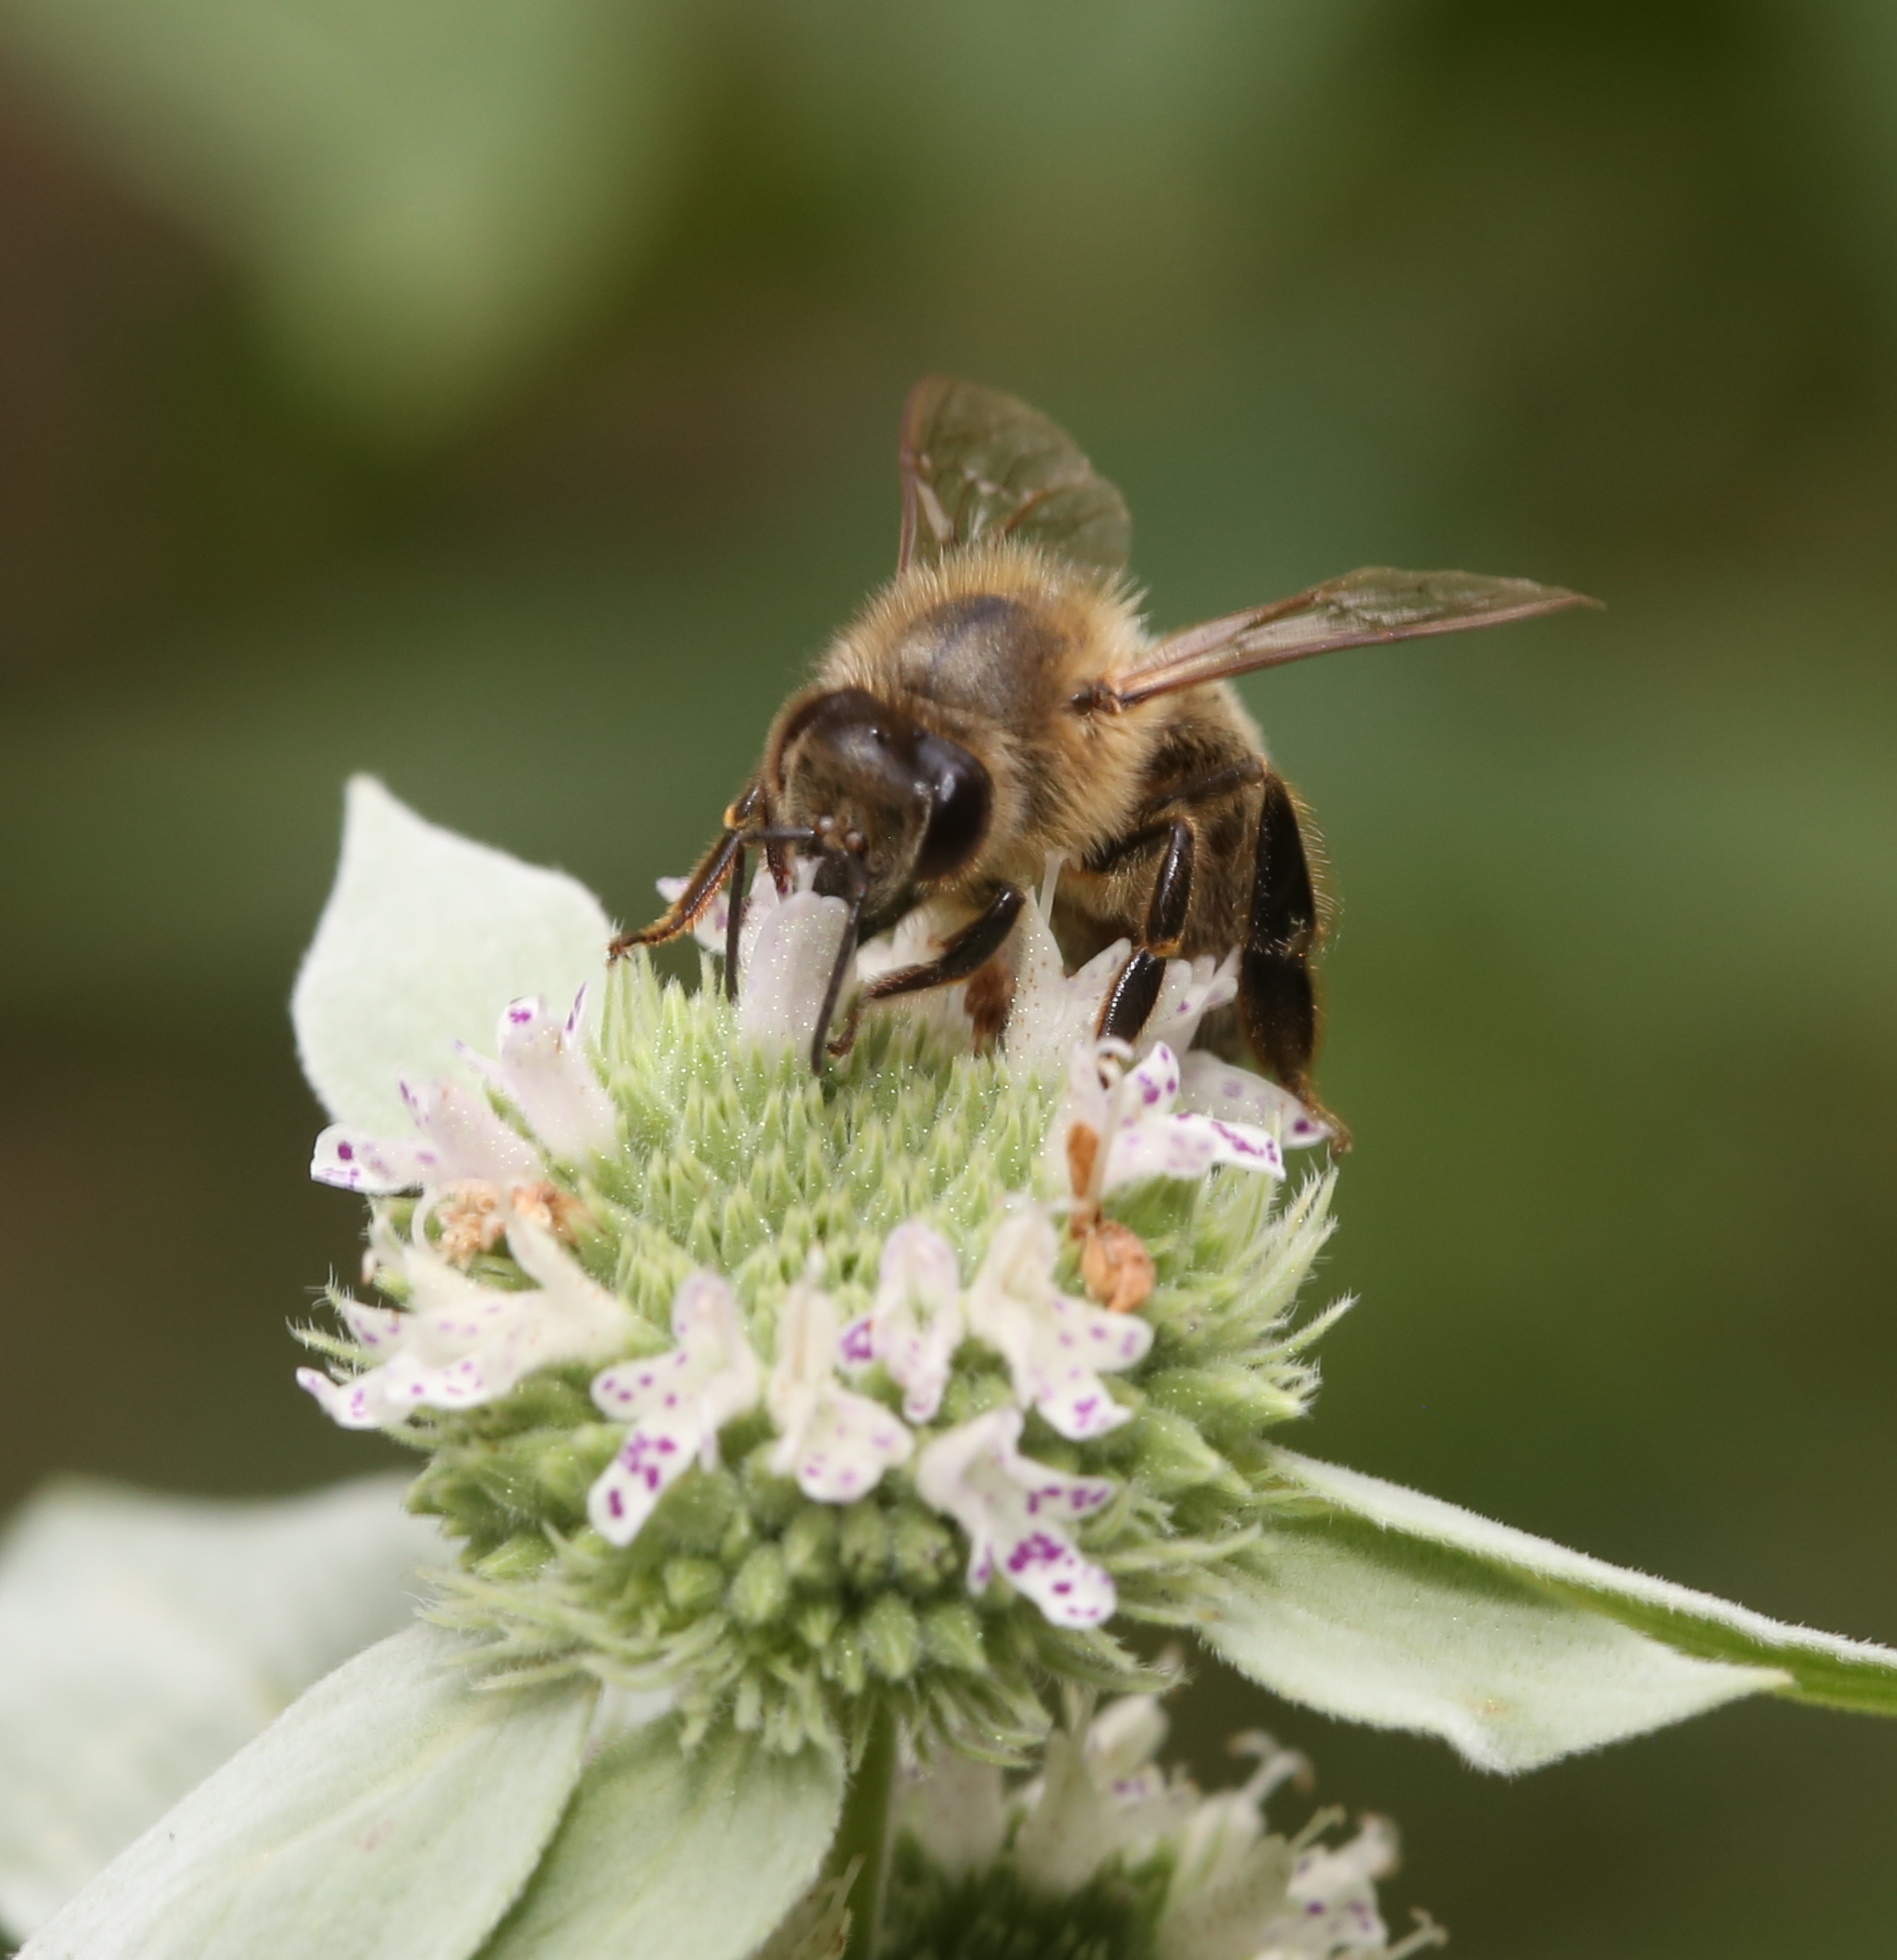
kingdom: Animalia
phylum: Arthropoda
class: Insecta
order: Hymenoptera
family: Apidae
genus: Apis
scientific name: Apis mellifera
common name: Honey bee
